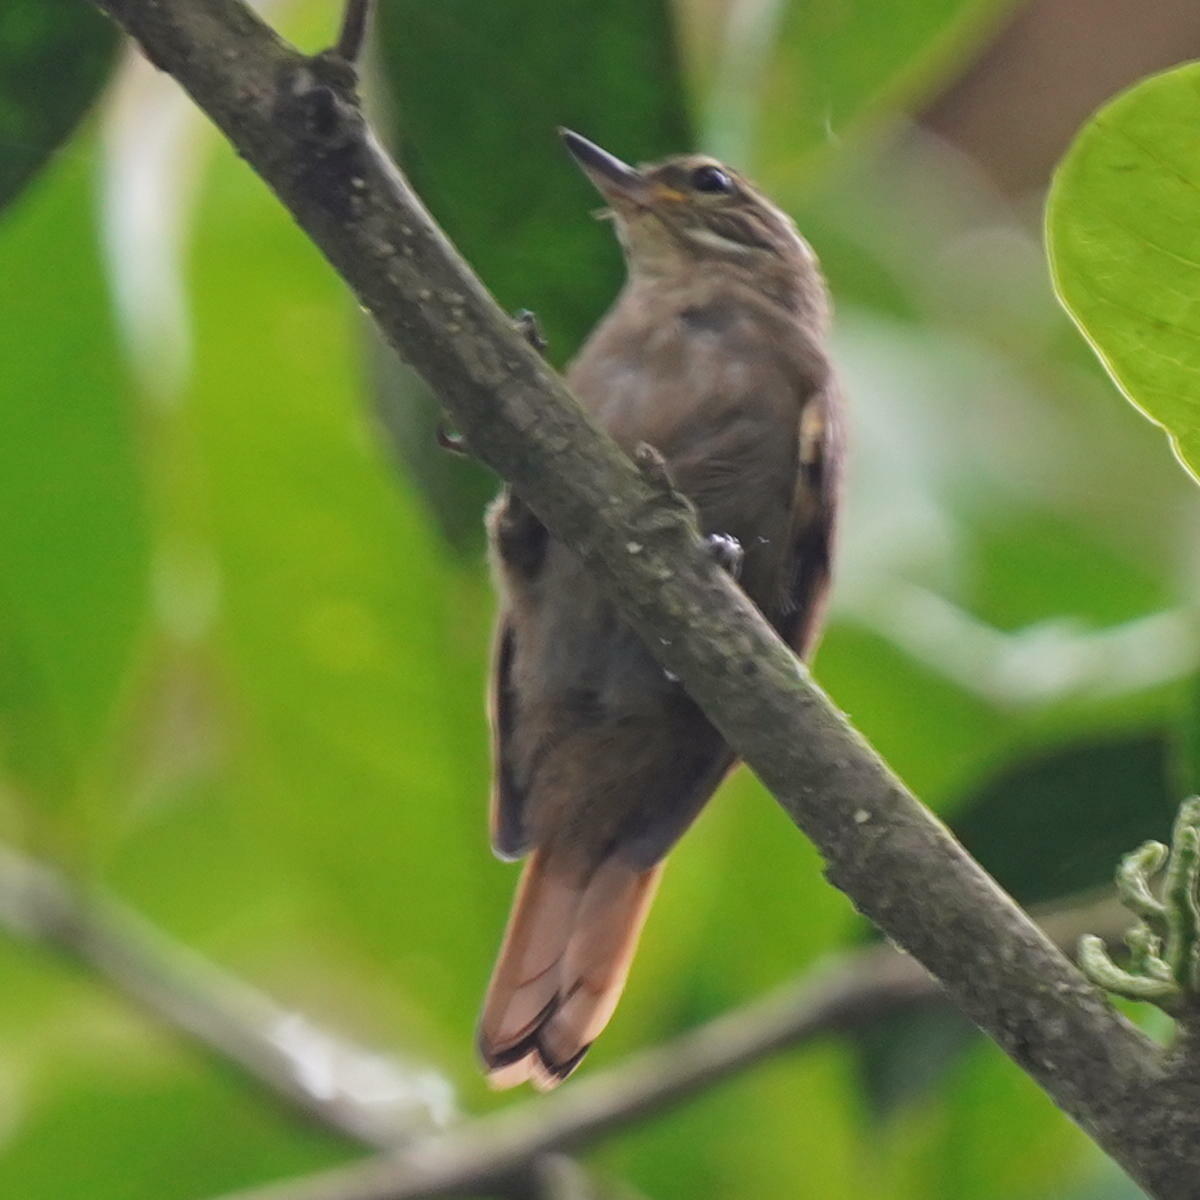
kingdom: Animalia
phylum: Chordata
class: Aves
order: Passeriformes
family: Furnariidae
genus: Xenops
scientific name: Xenops minutus
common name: Plain xenops
